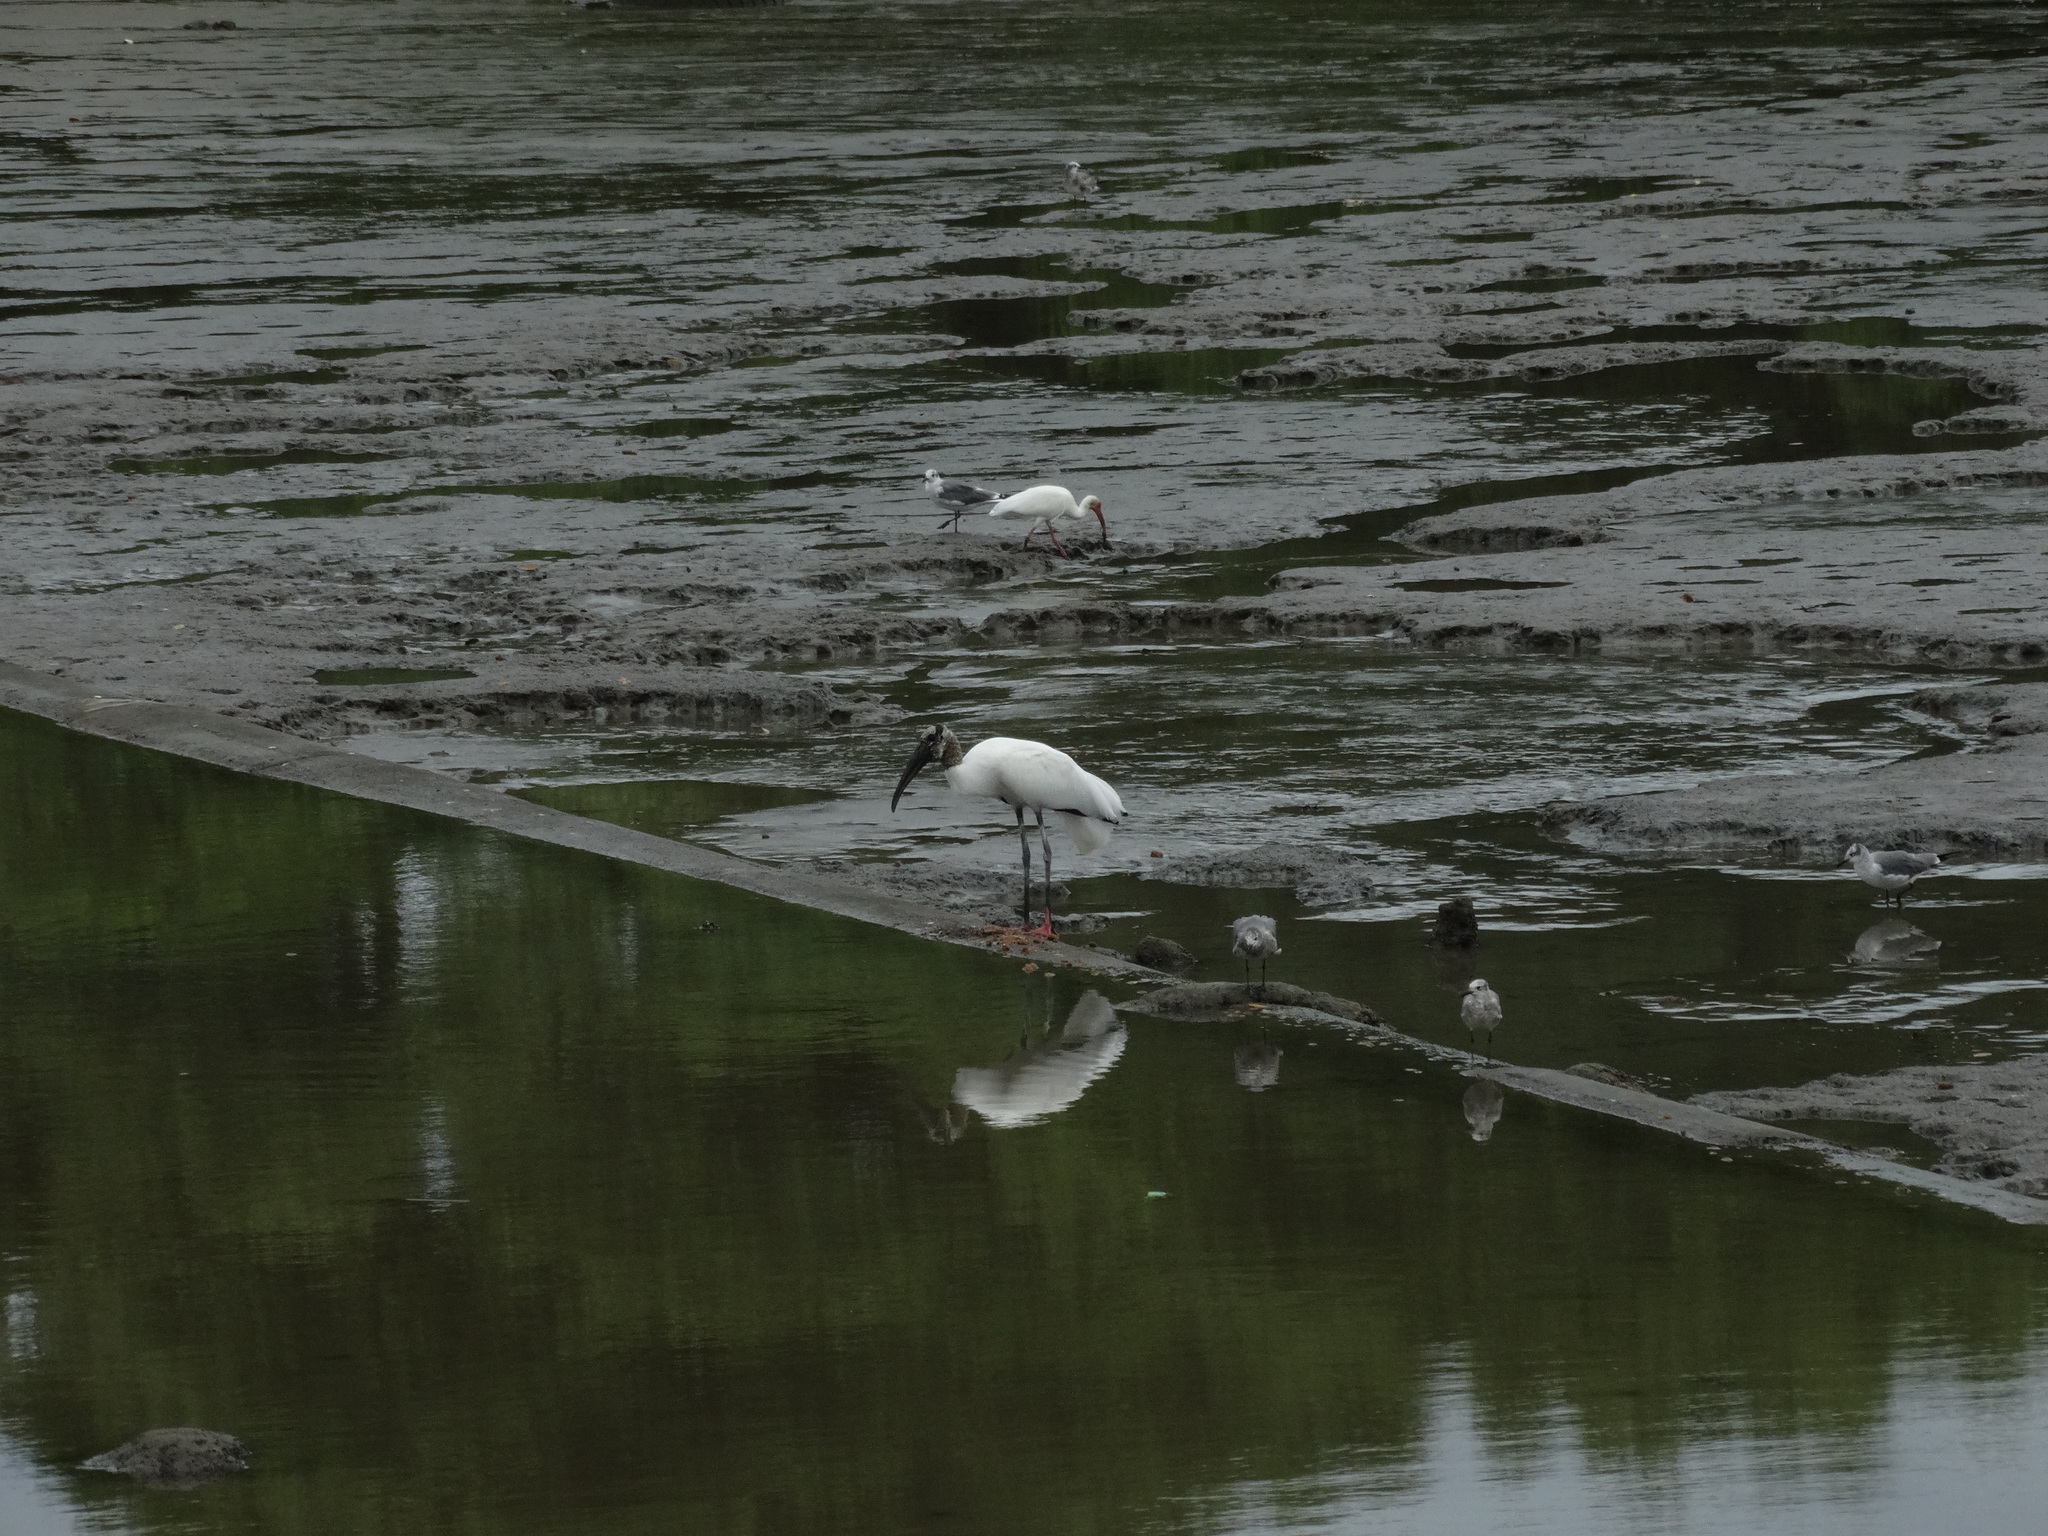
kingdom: Animalia
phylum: Chordata
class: Aves
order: Ciconiiformes
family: Ciconiidae
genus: Mycteria
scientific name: Mycteria americana
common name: Wood stork
